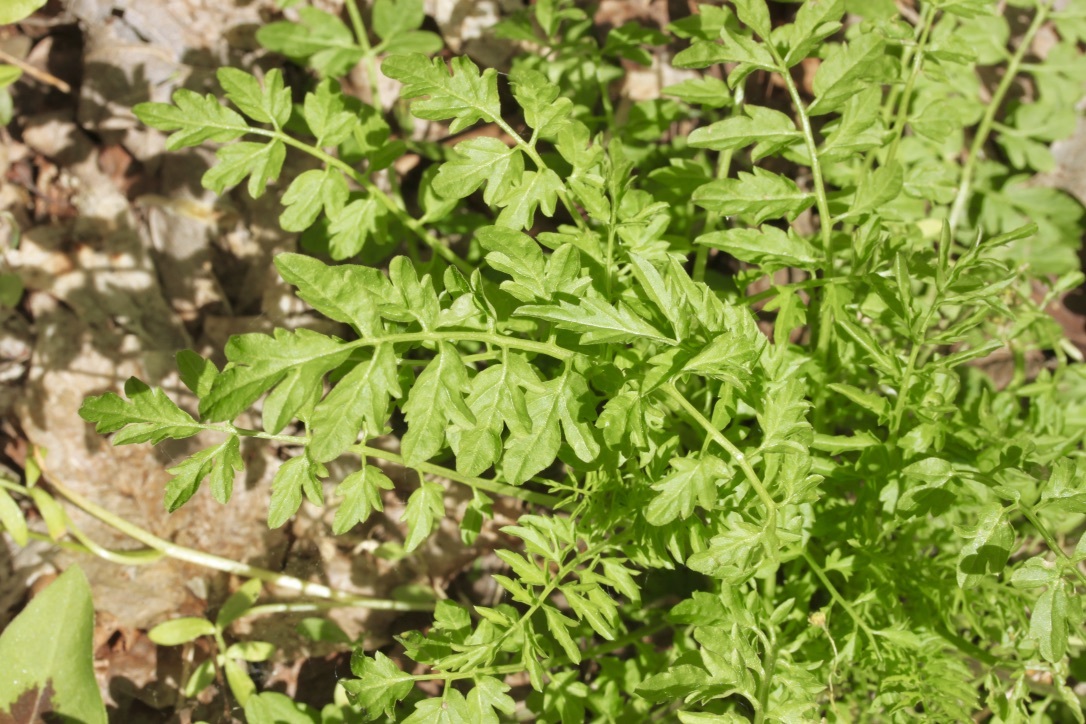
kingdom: Plantae
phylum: Tracheophyta
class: Magnoliopsida
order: Brassicales
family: Brassicaceae
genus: Cardamine
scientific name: Cardamine impatiens
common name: Narrow-leaved bitter-cress
